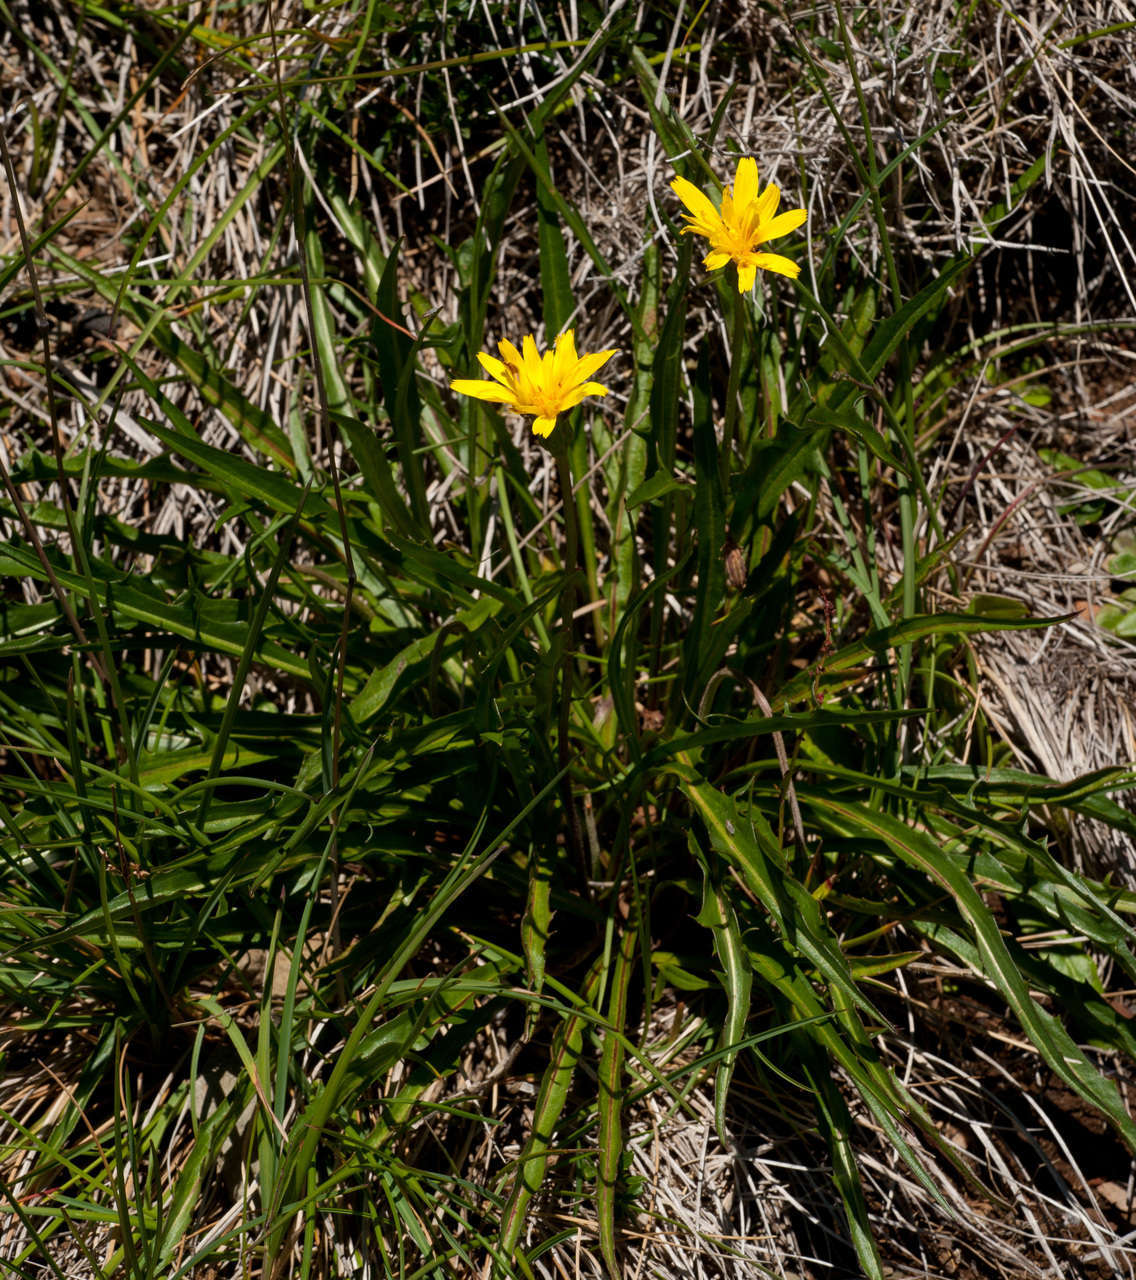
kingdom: Plantae
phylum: Tracheophyta
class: Magnoliopsida
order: Asterales
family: Asteraceae
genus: Microseris
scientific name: Microseris lanceolata
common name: Yam daisy
